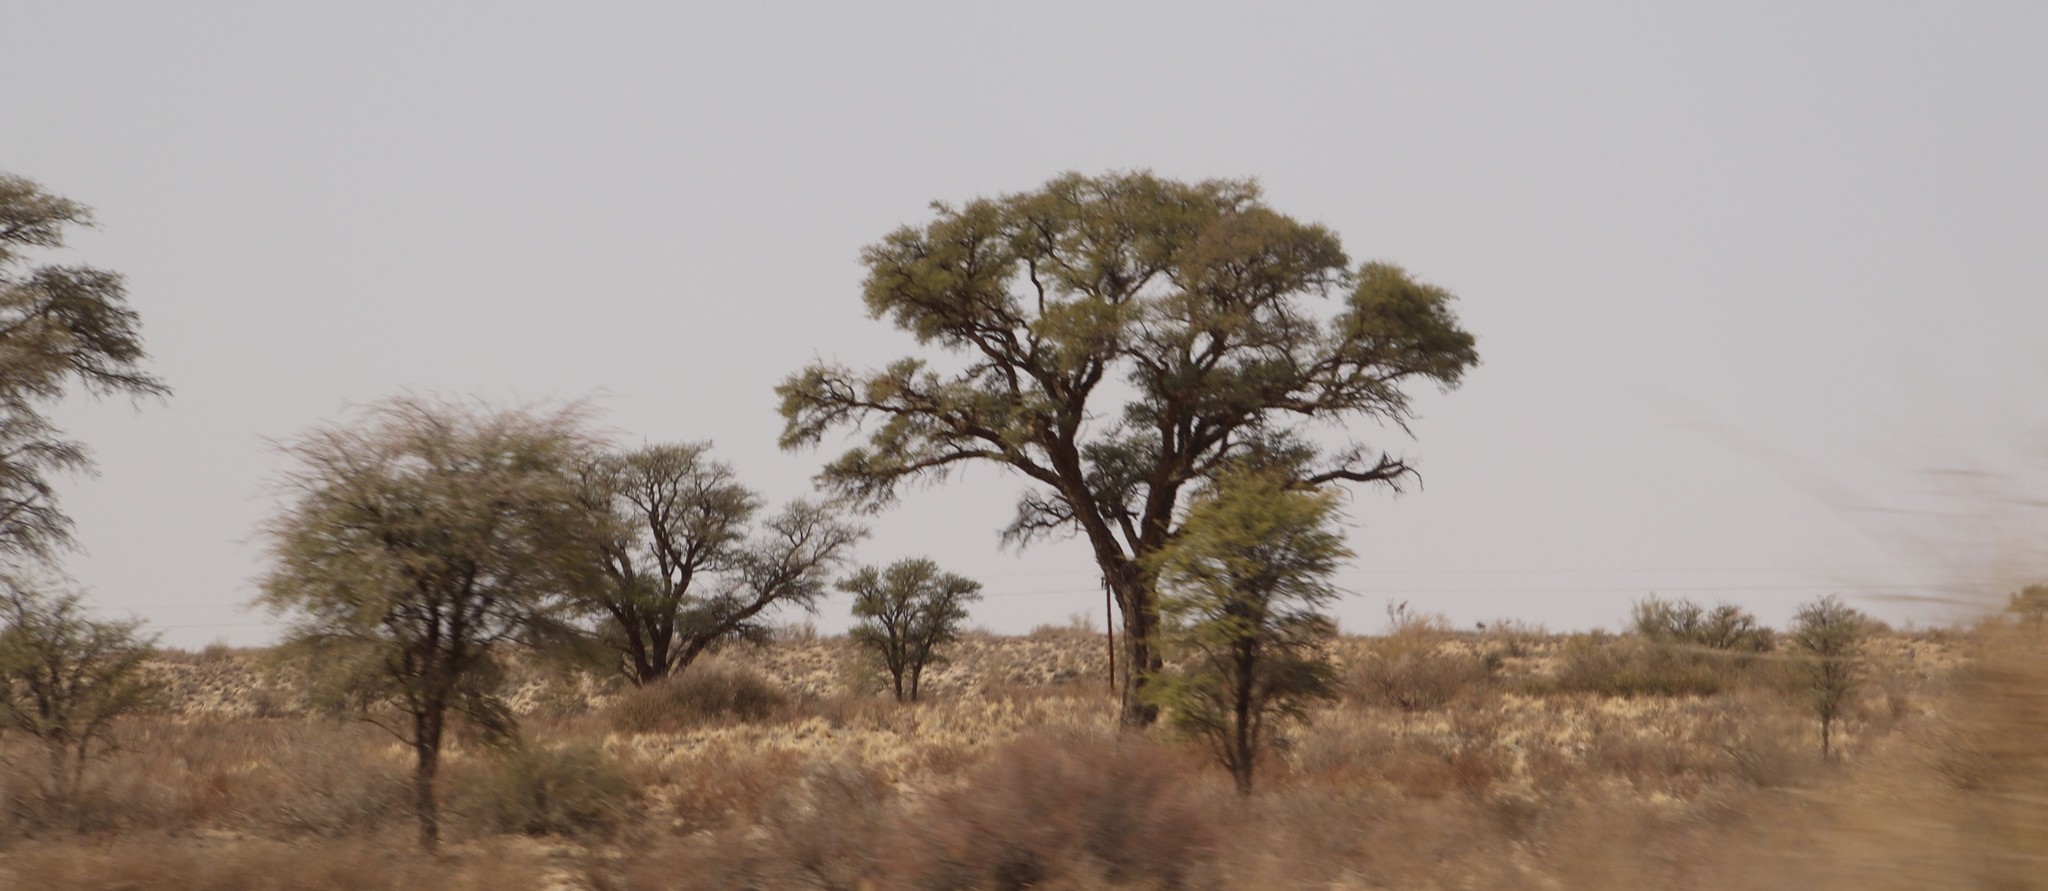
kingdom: Plantae
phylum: Tracheophyta
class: Magnoliopsida
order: Fabales
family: Fabaceae
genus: Vachellia
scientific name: Vachellia erioloba
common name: Camel thorn
